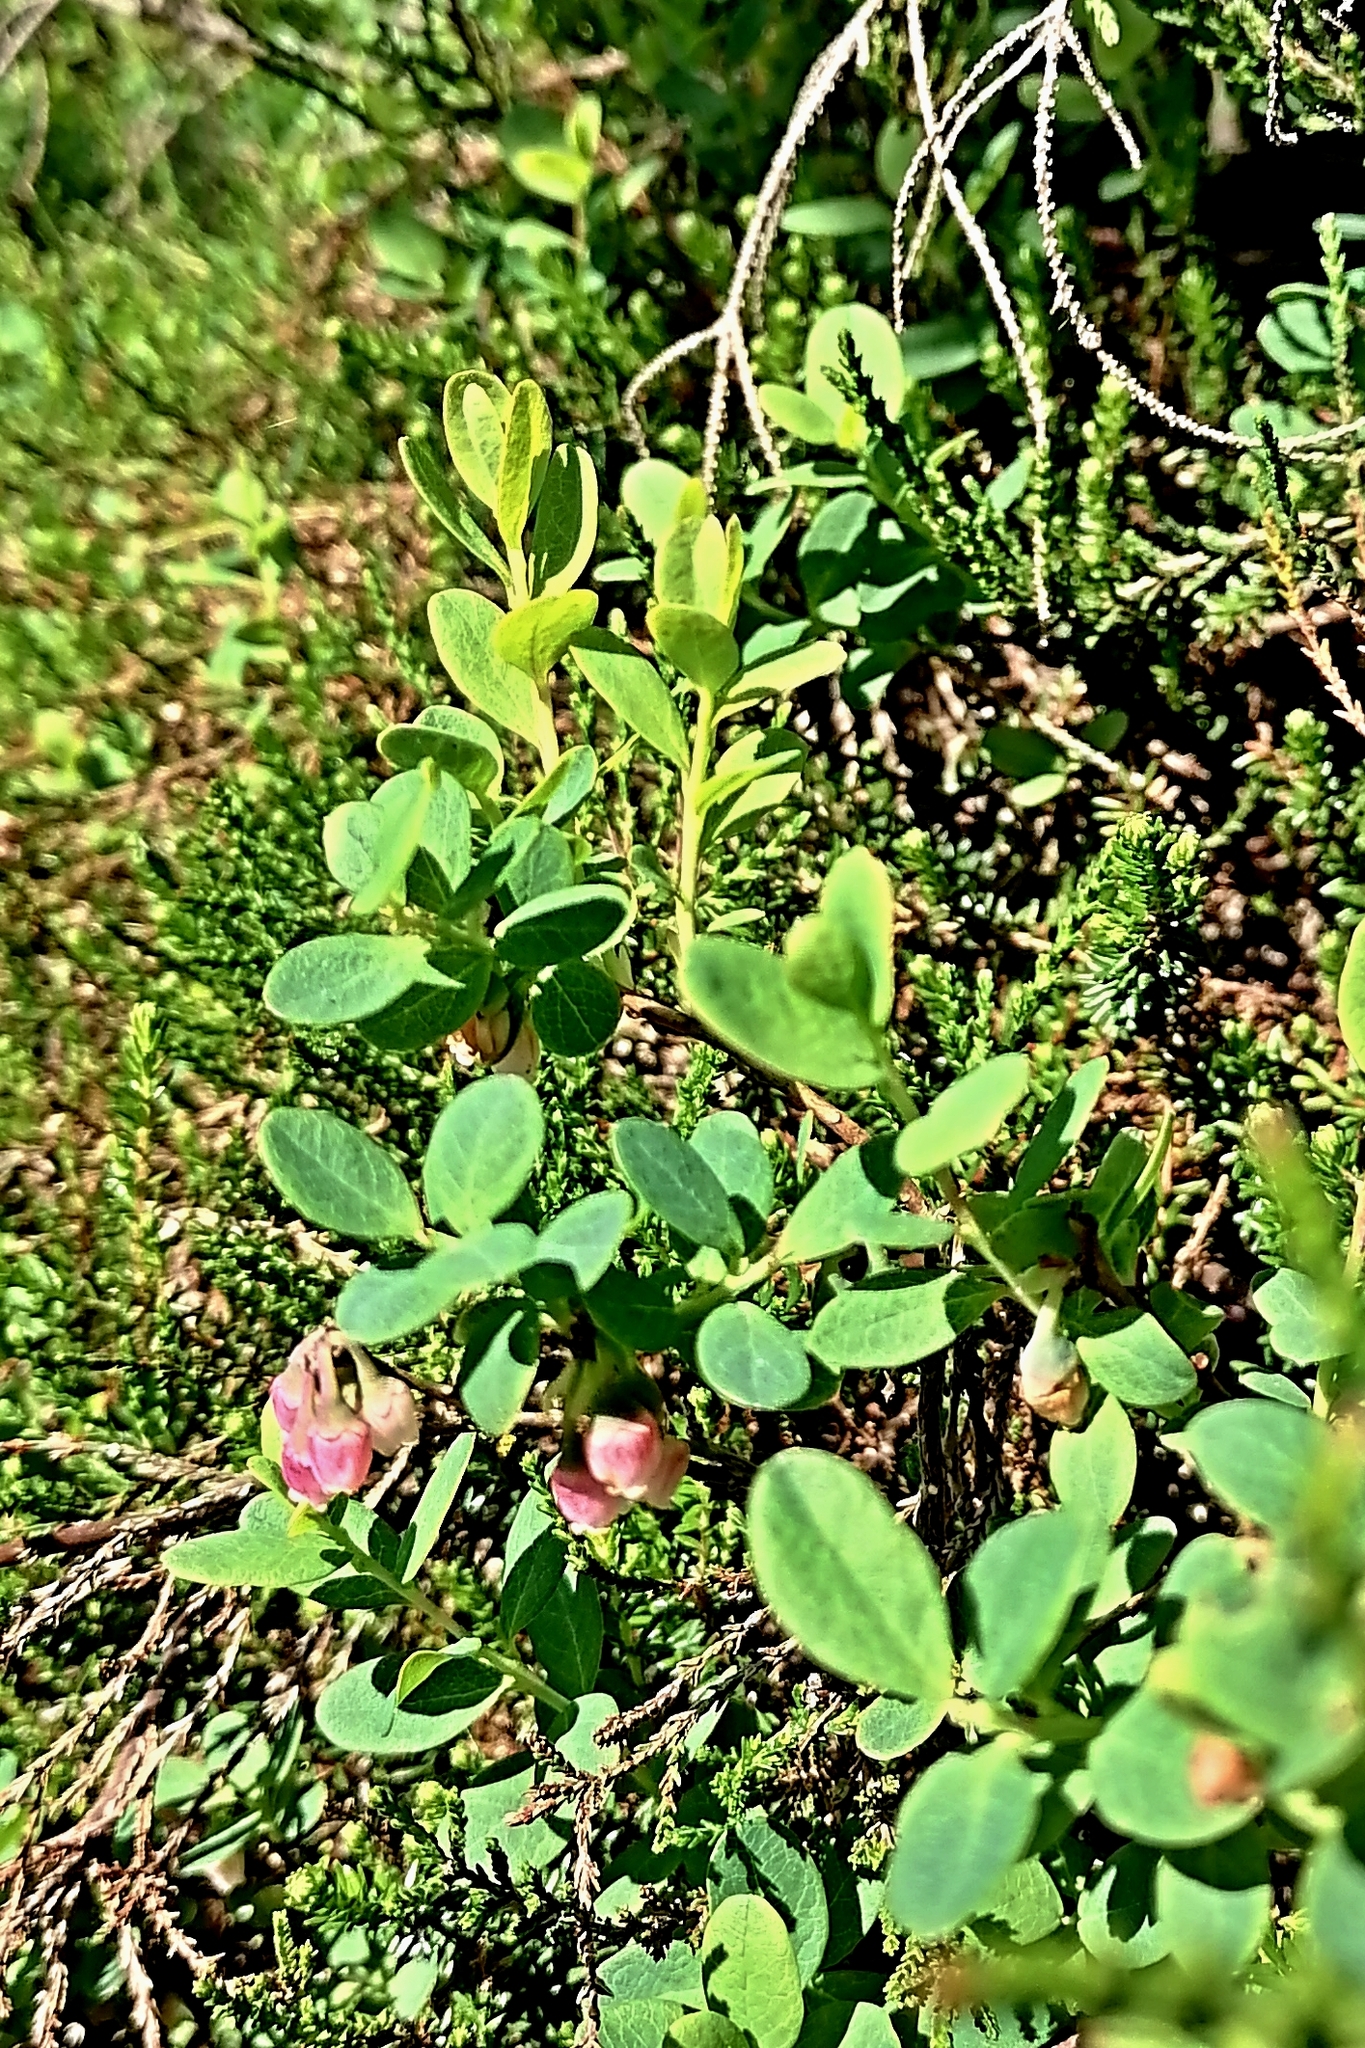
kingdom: Plantae
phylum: Tracheophyta
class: Magnoliopsida
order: Ericales
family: Ericaceae
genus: Vaccinium
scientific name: Vaccinium uliginosum
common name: Bog bilberry
